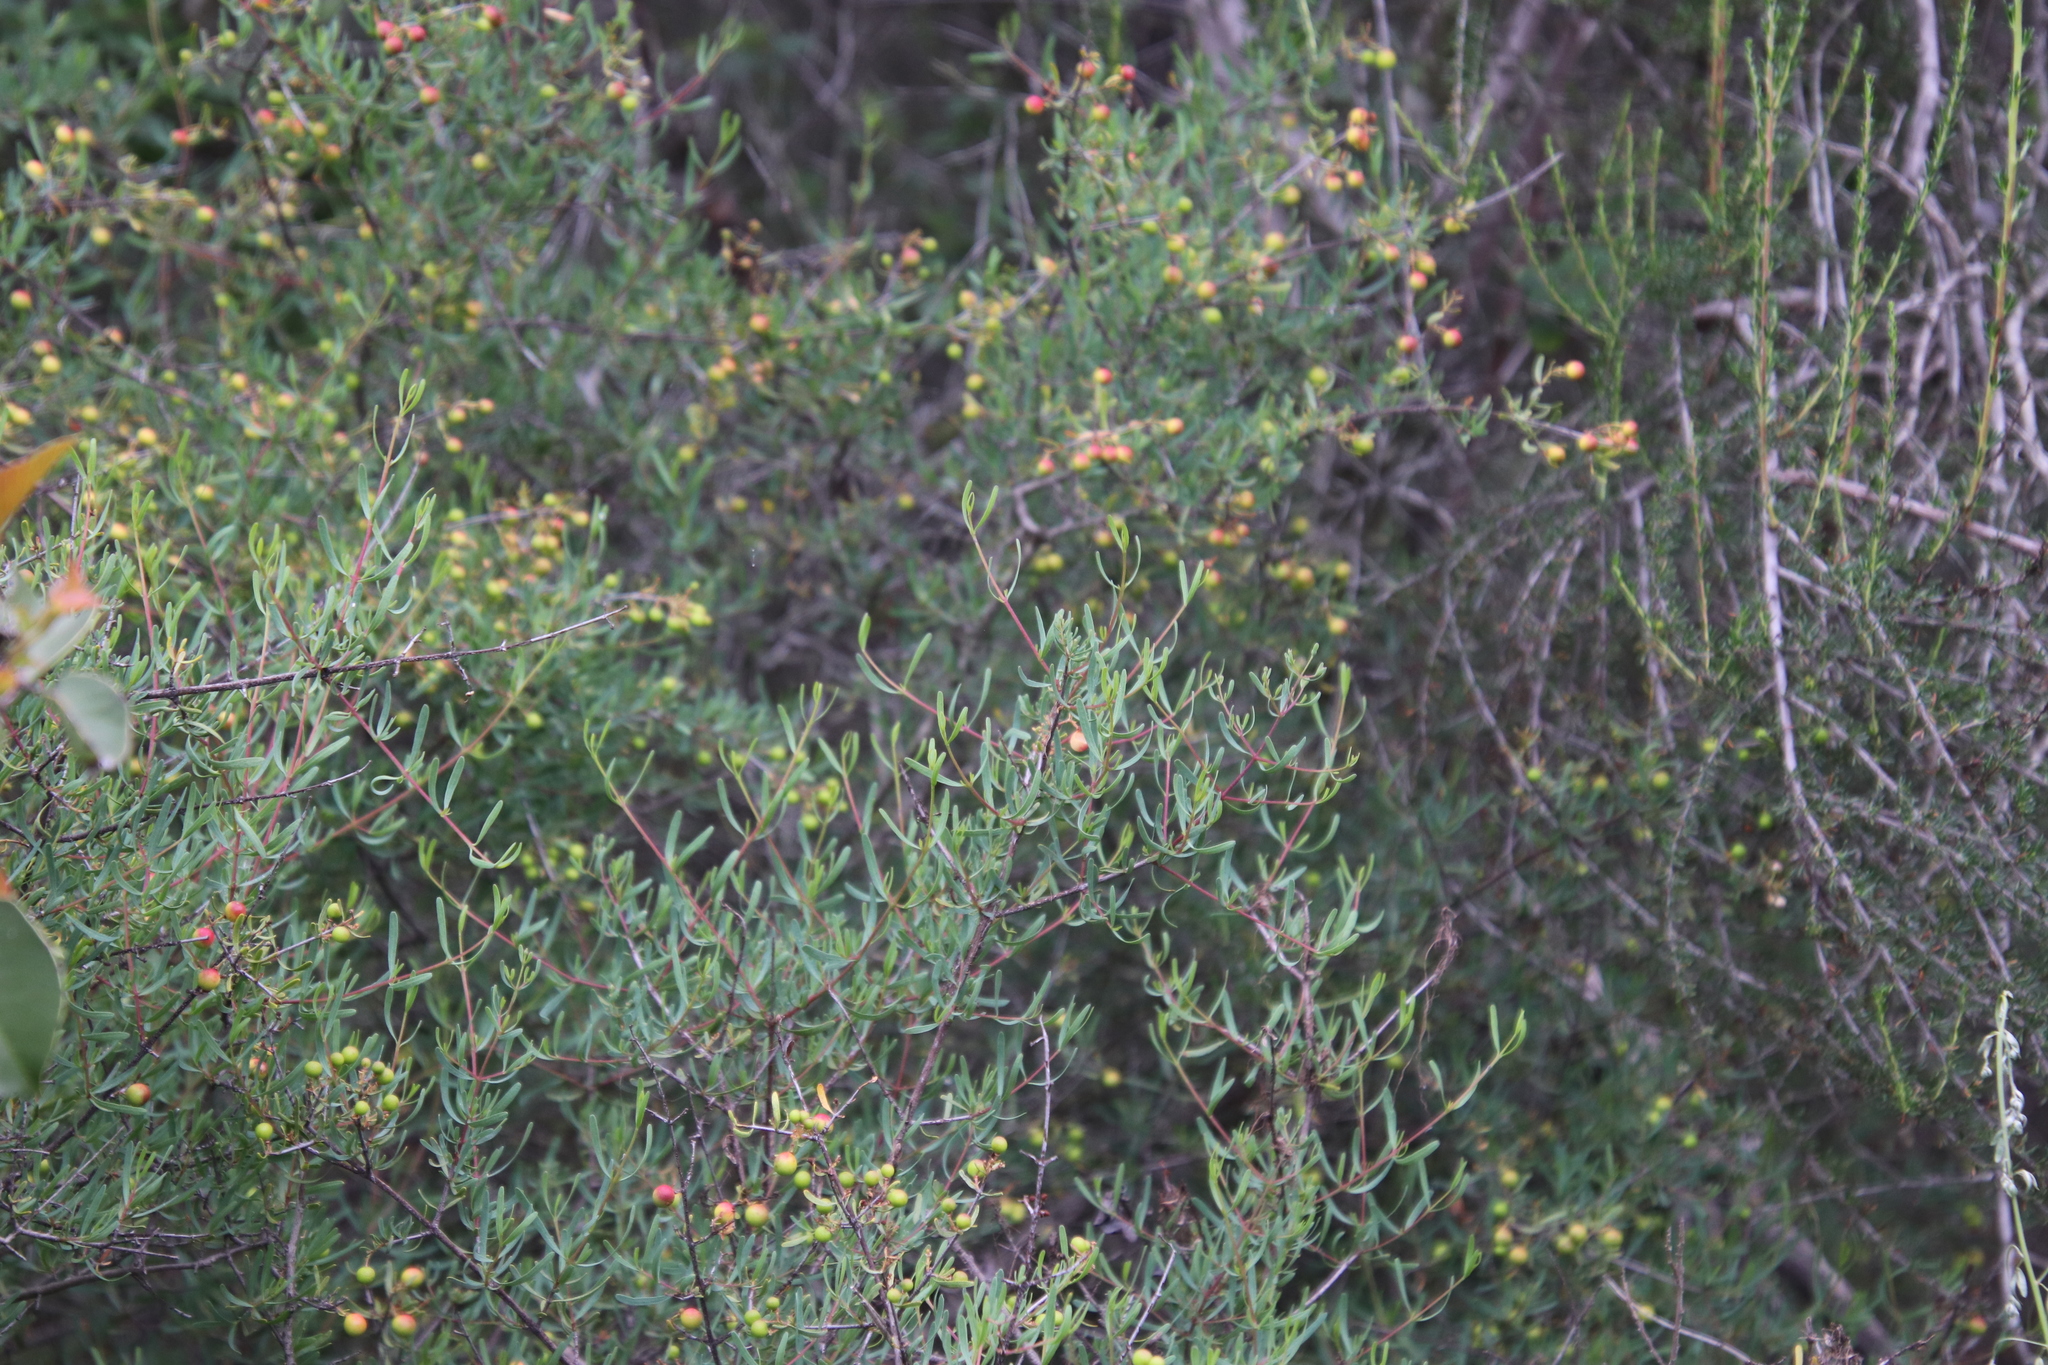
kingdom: Plantae
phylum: Tracheophyta
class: Magnoliopsida
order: Sapindales
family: Rutaceae
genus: Cneoridium
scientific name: Cneoridium dumosum
